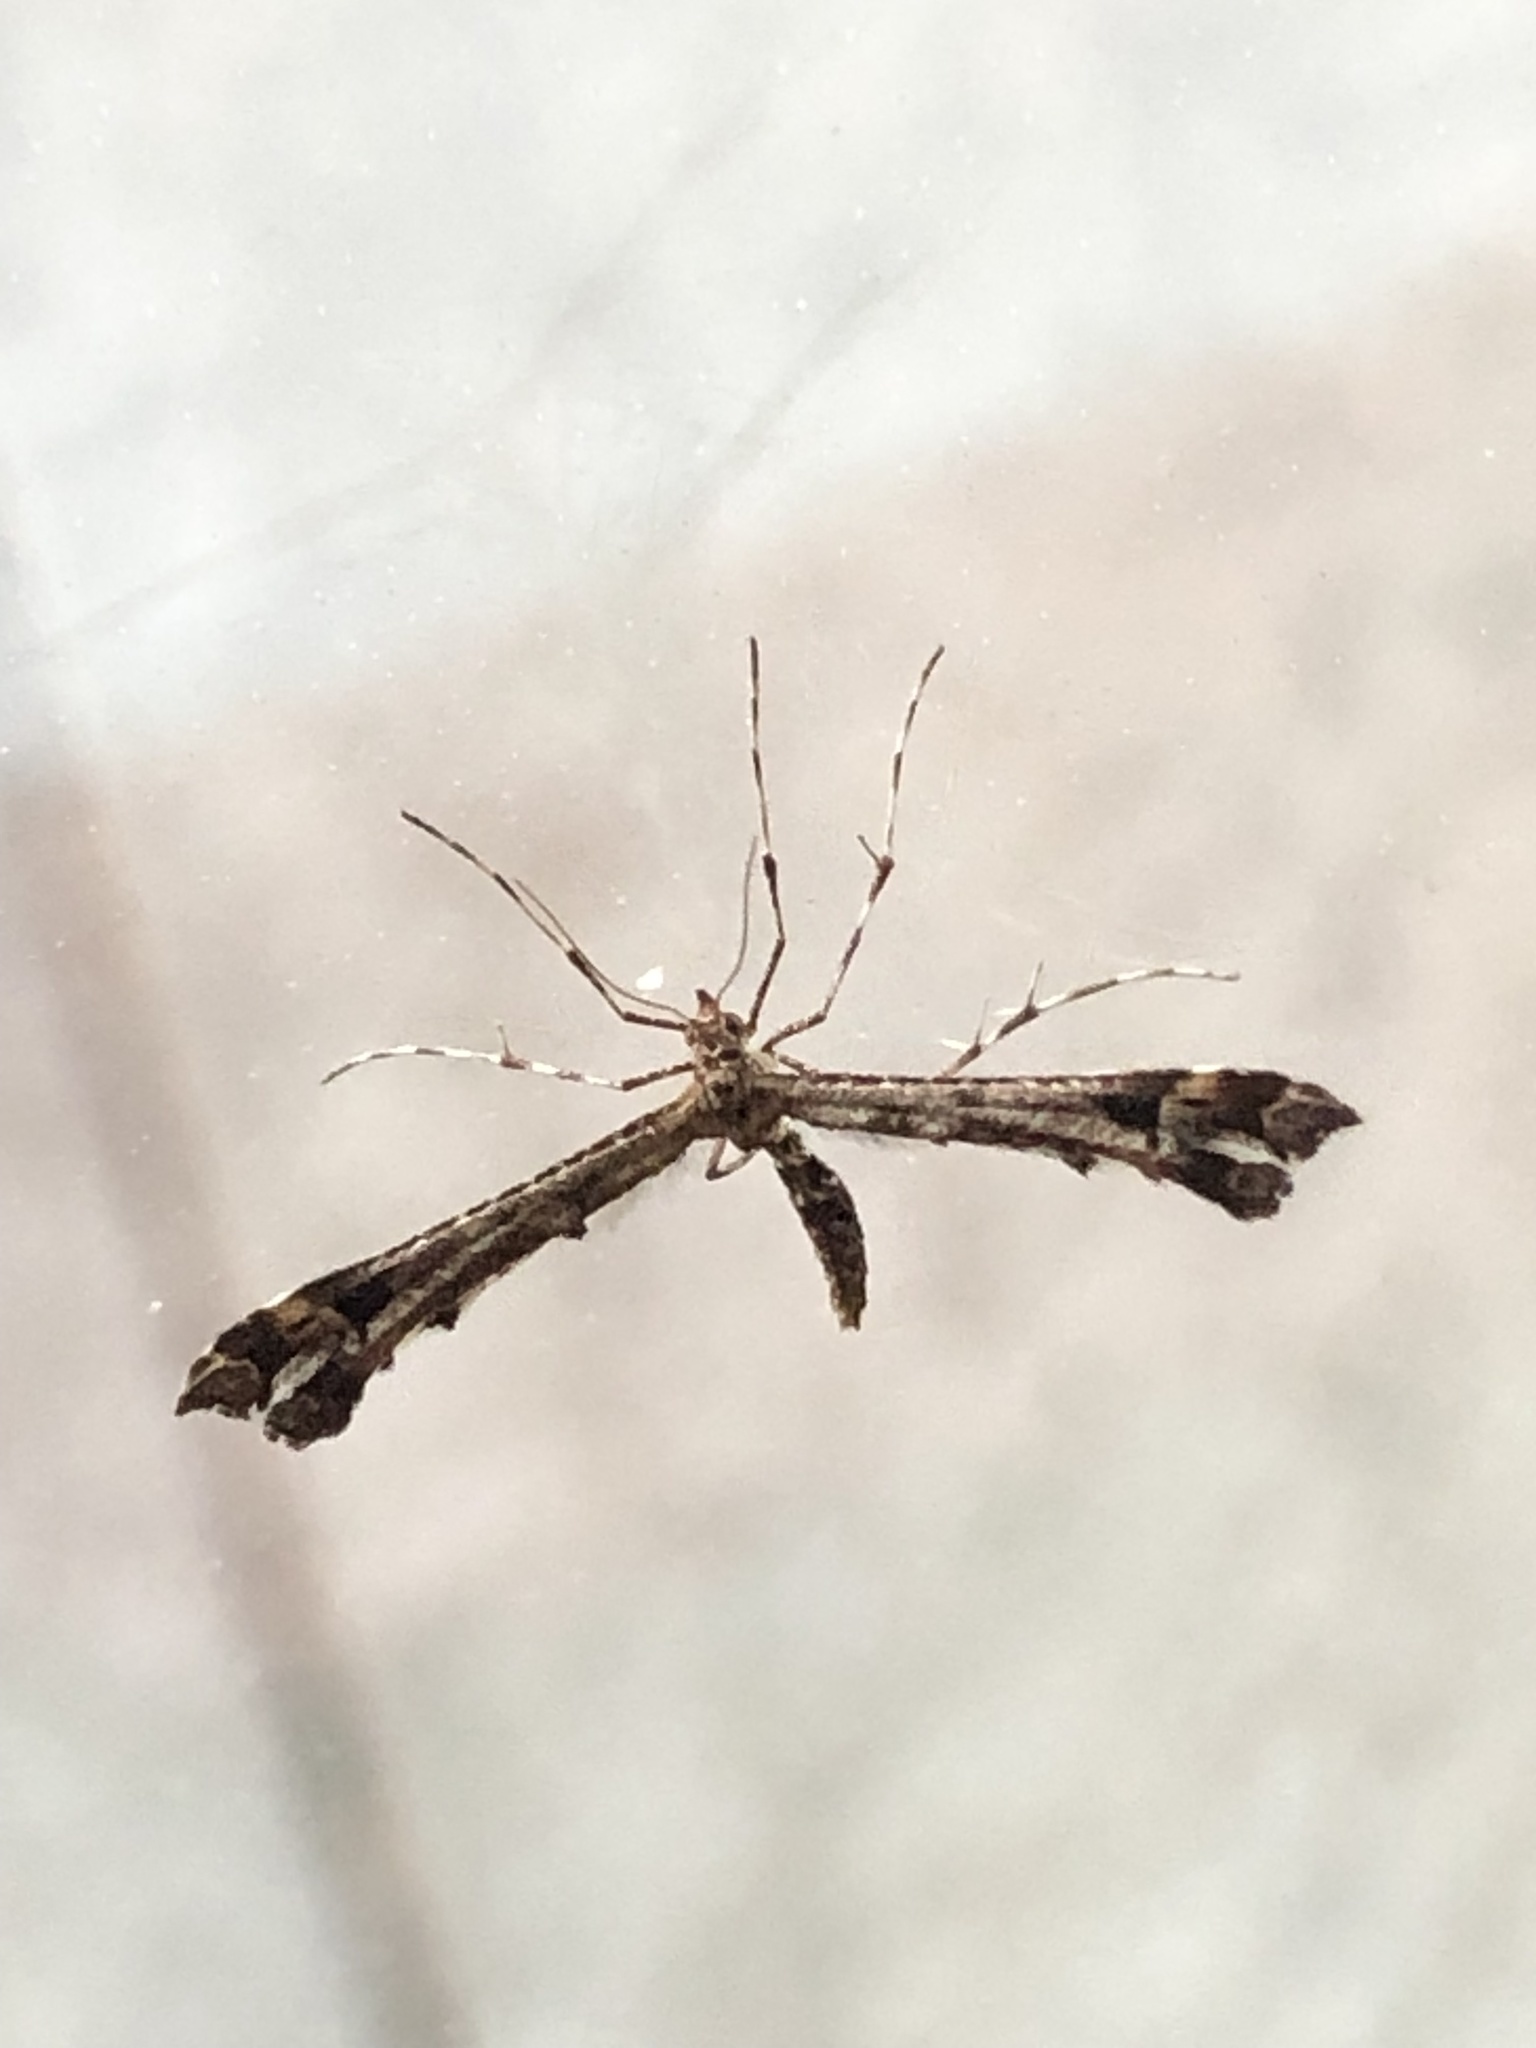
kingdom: Animalia
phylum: Arthropoda
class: Insecta
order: Lepidoptera
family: Pterophoridae
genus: Amblyptilia
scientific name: Amblyptilia pica
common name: Geranium plume moth
